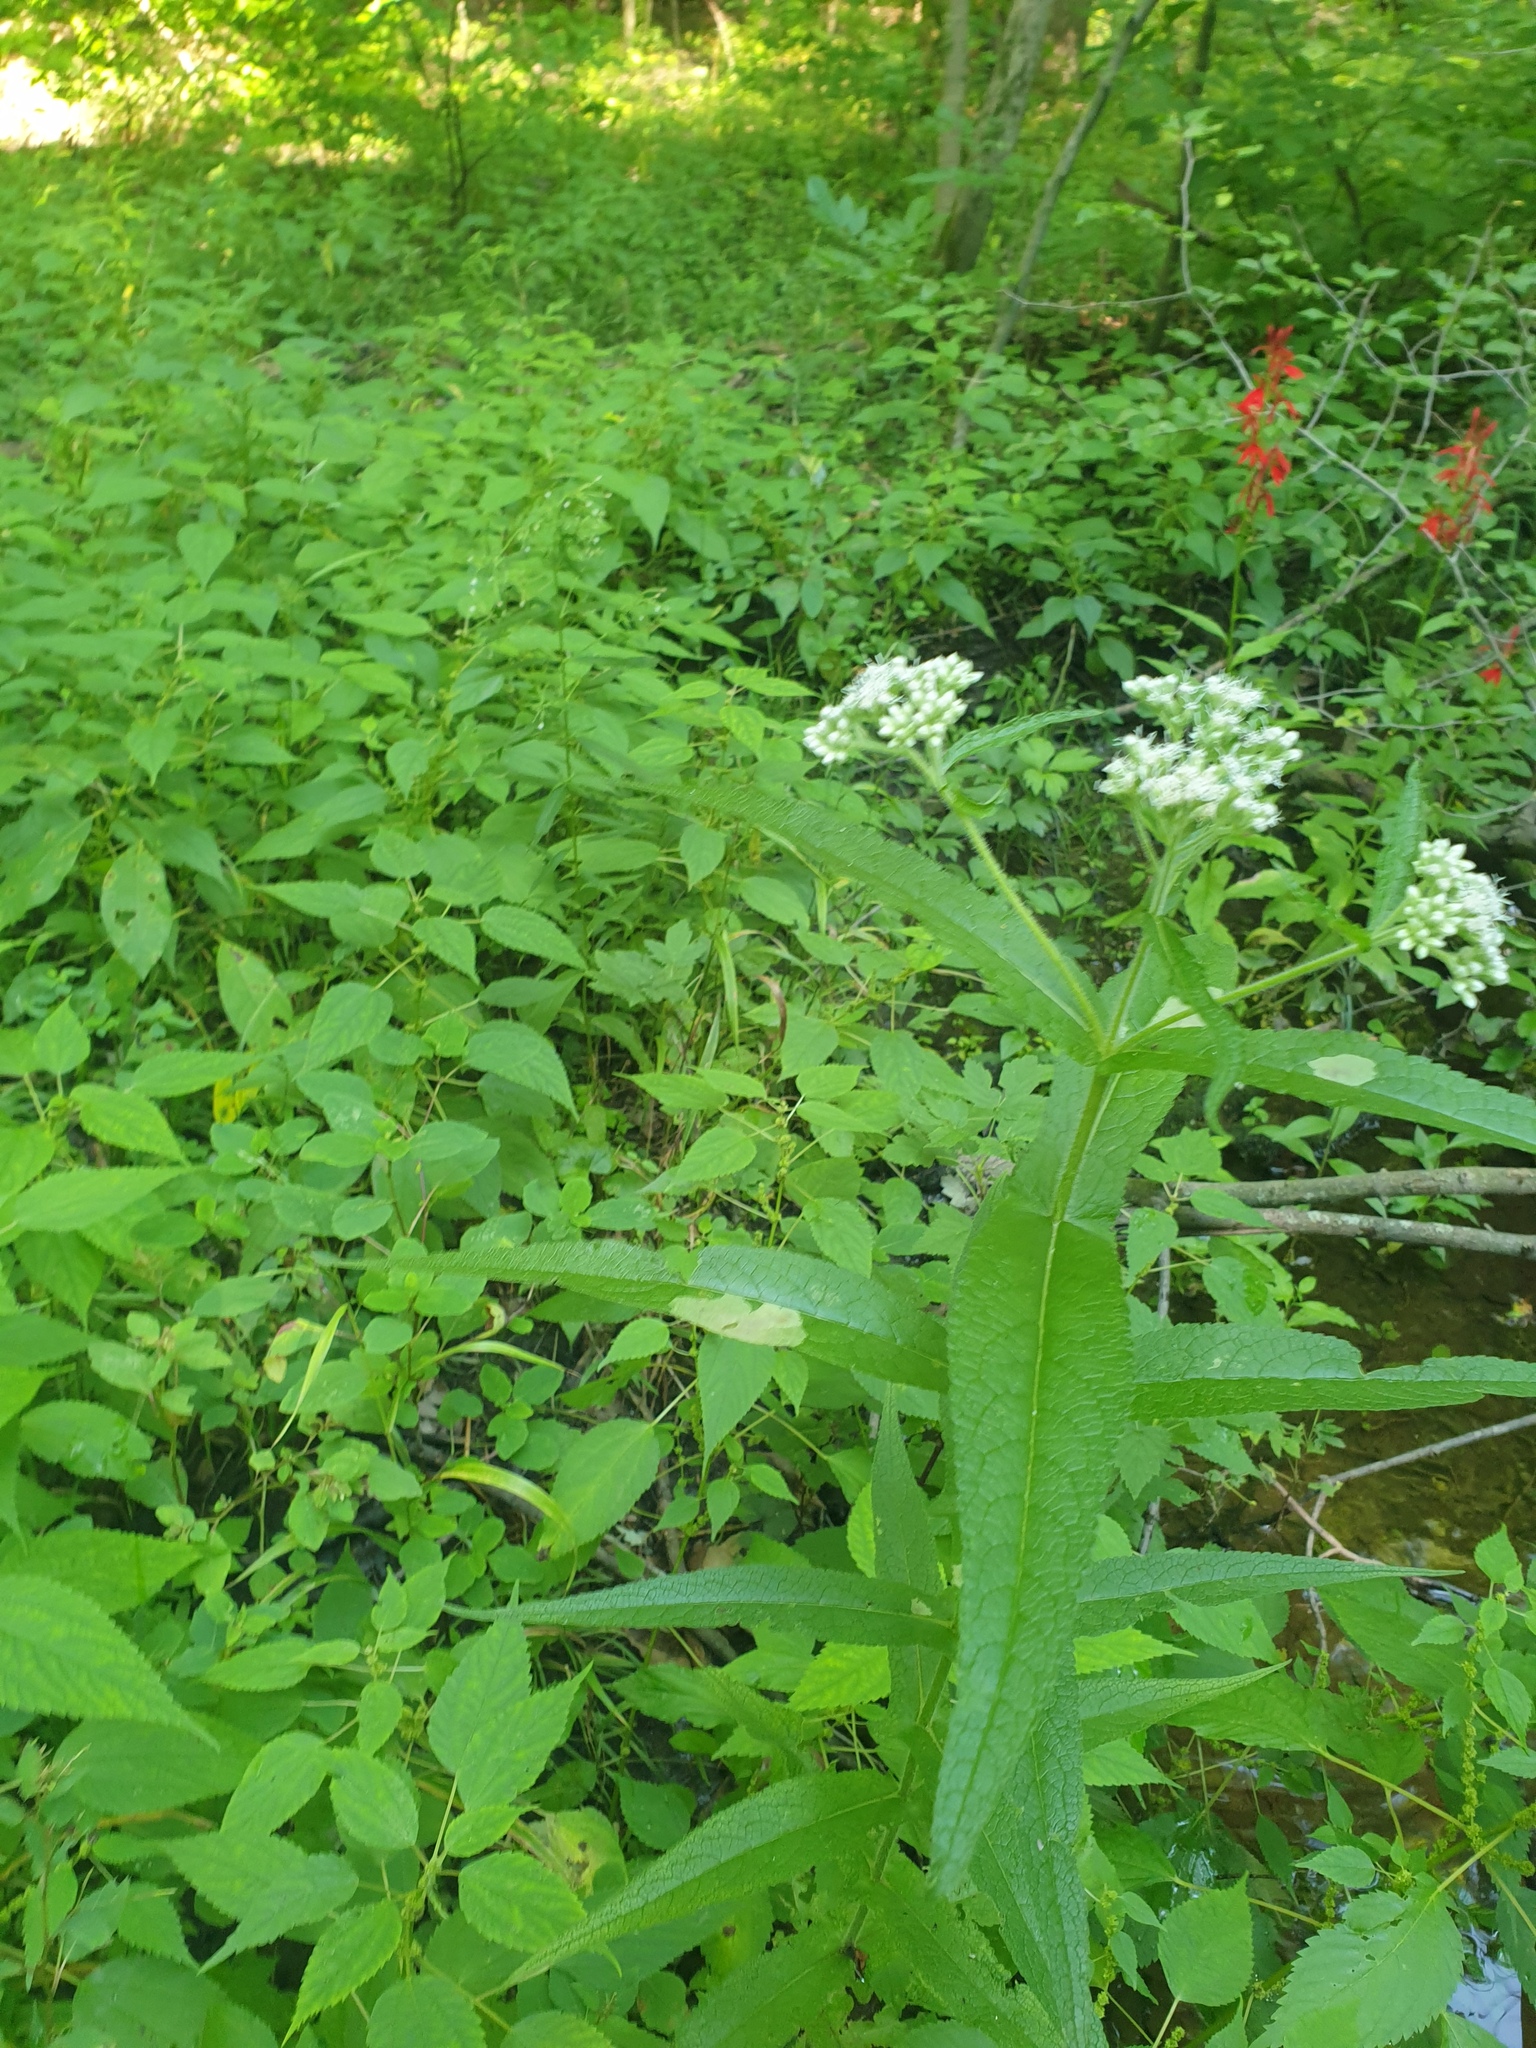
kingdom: Plantae
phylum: Tracheophyta
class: Magnoliopsida
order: Asterales
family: Asteraceae
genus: Eupatorium
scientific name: Eupatorium perfoliatum
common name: Boneset
